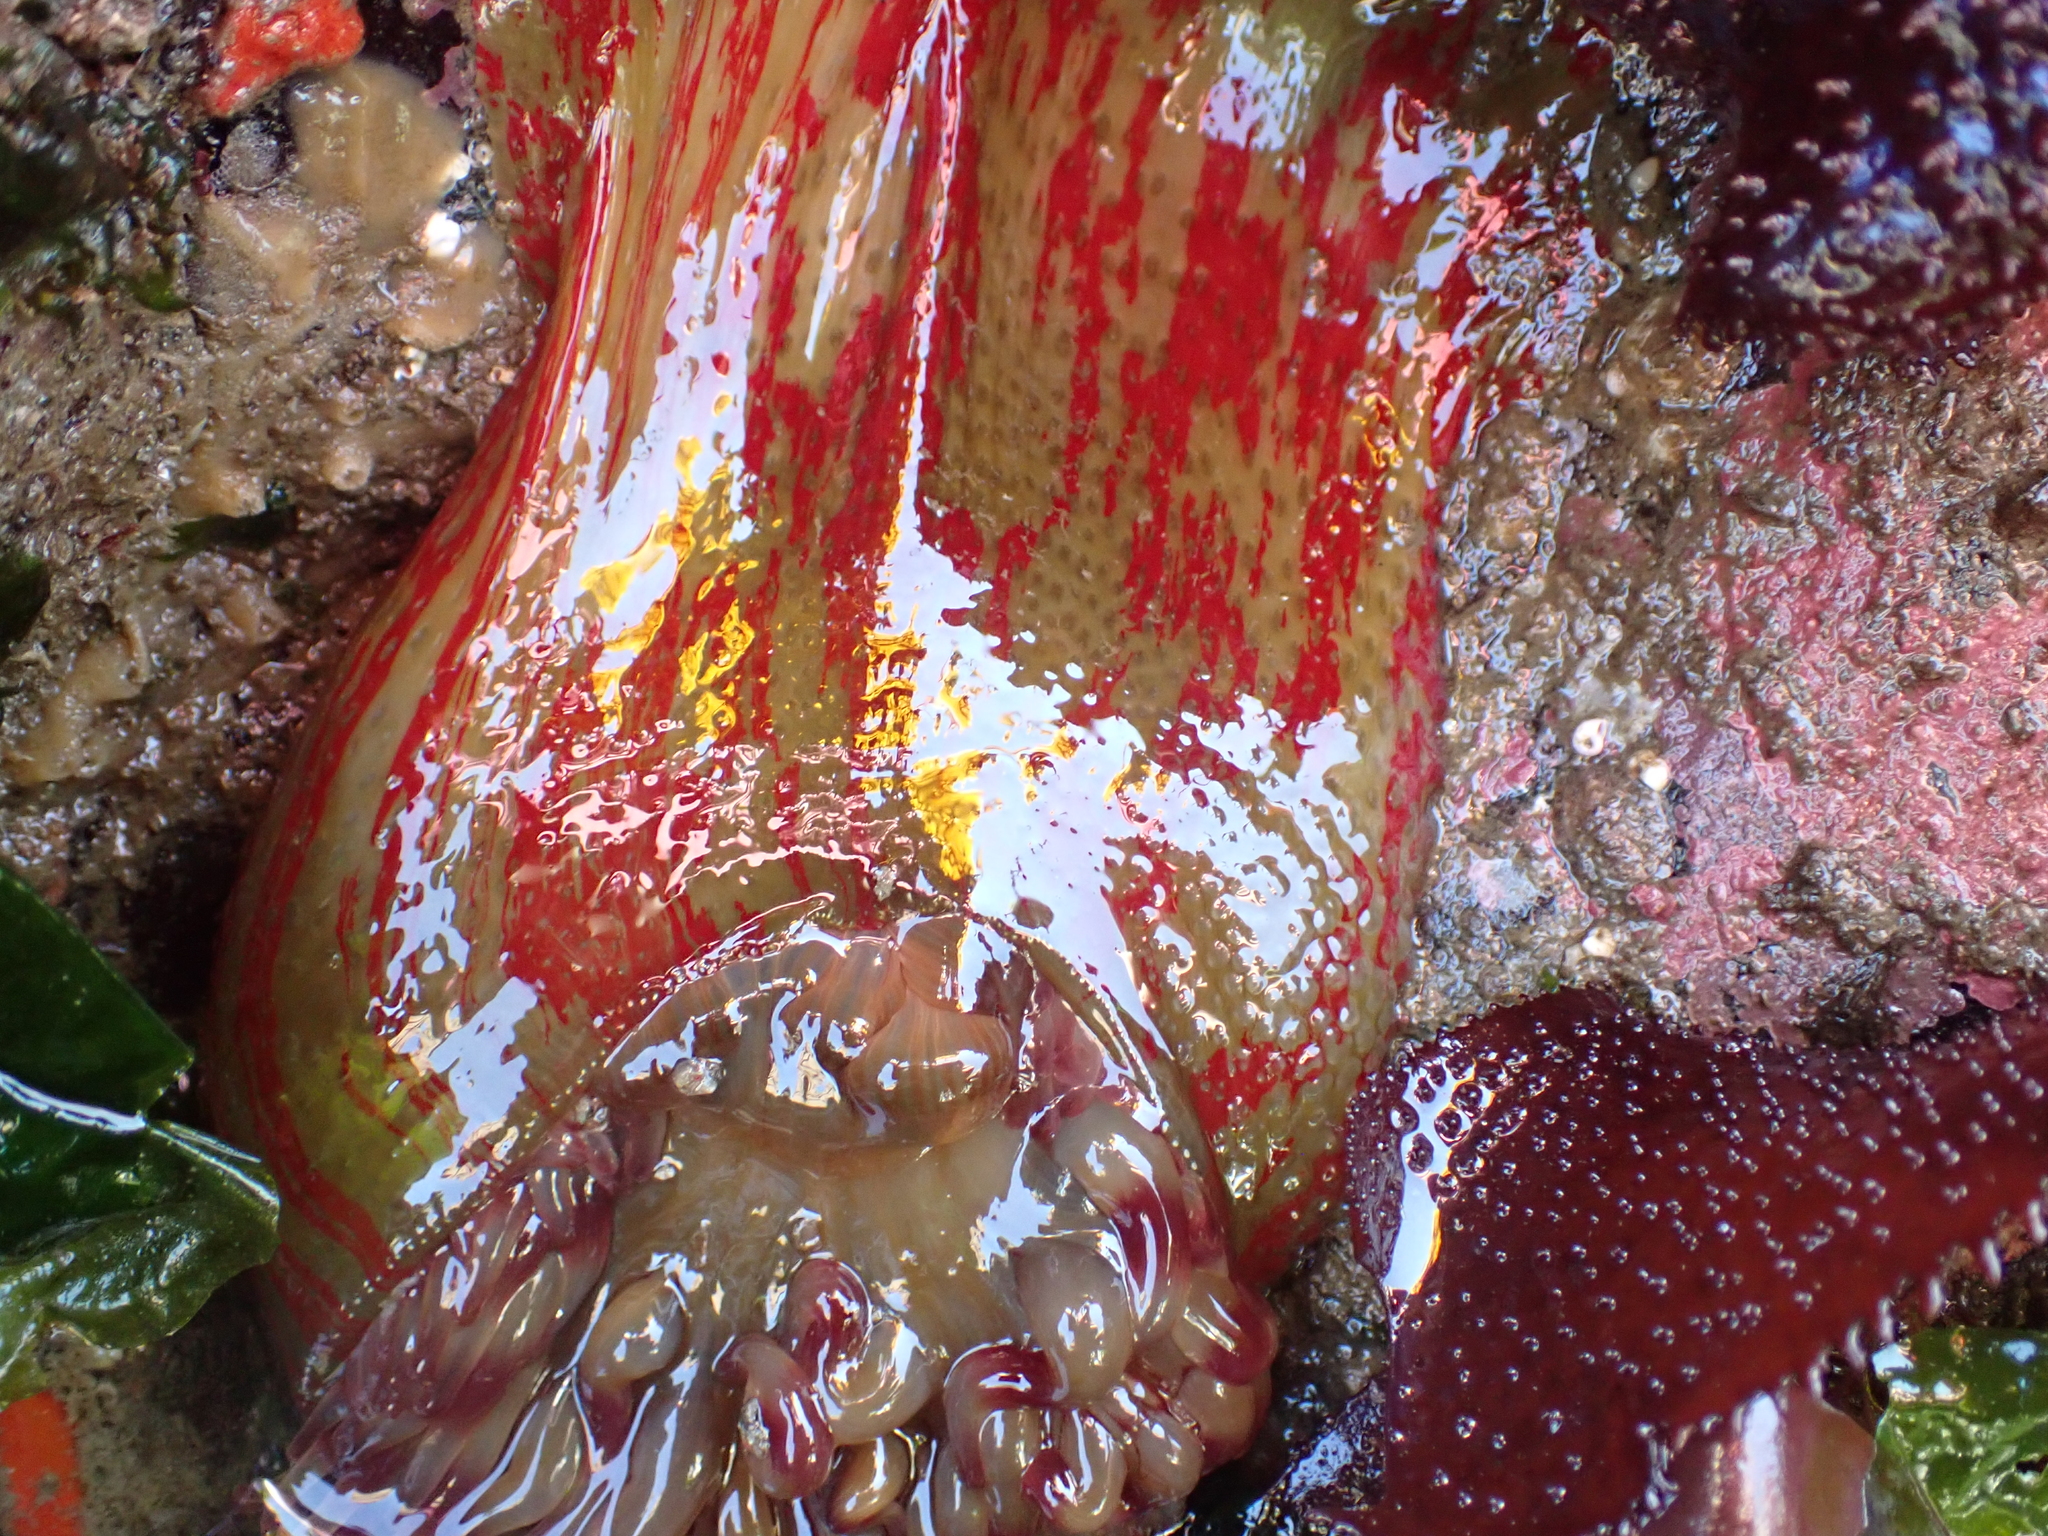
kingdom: Animalia
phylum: Cnidaria
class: Anthozoa
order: Actiniaria
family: Actiniidae
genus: Urticina
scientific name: Urticina grebelnyi
